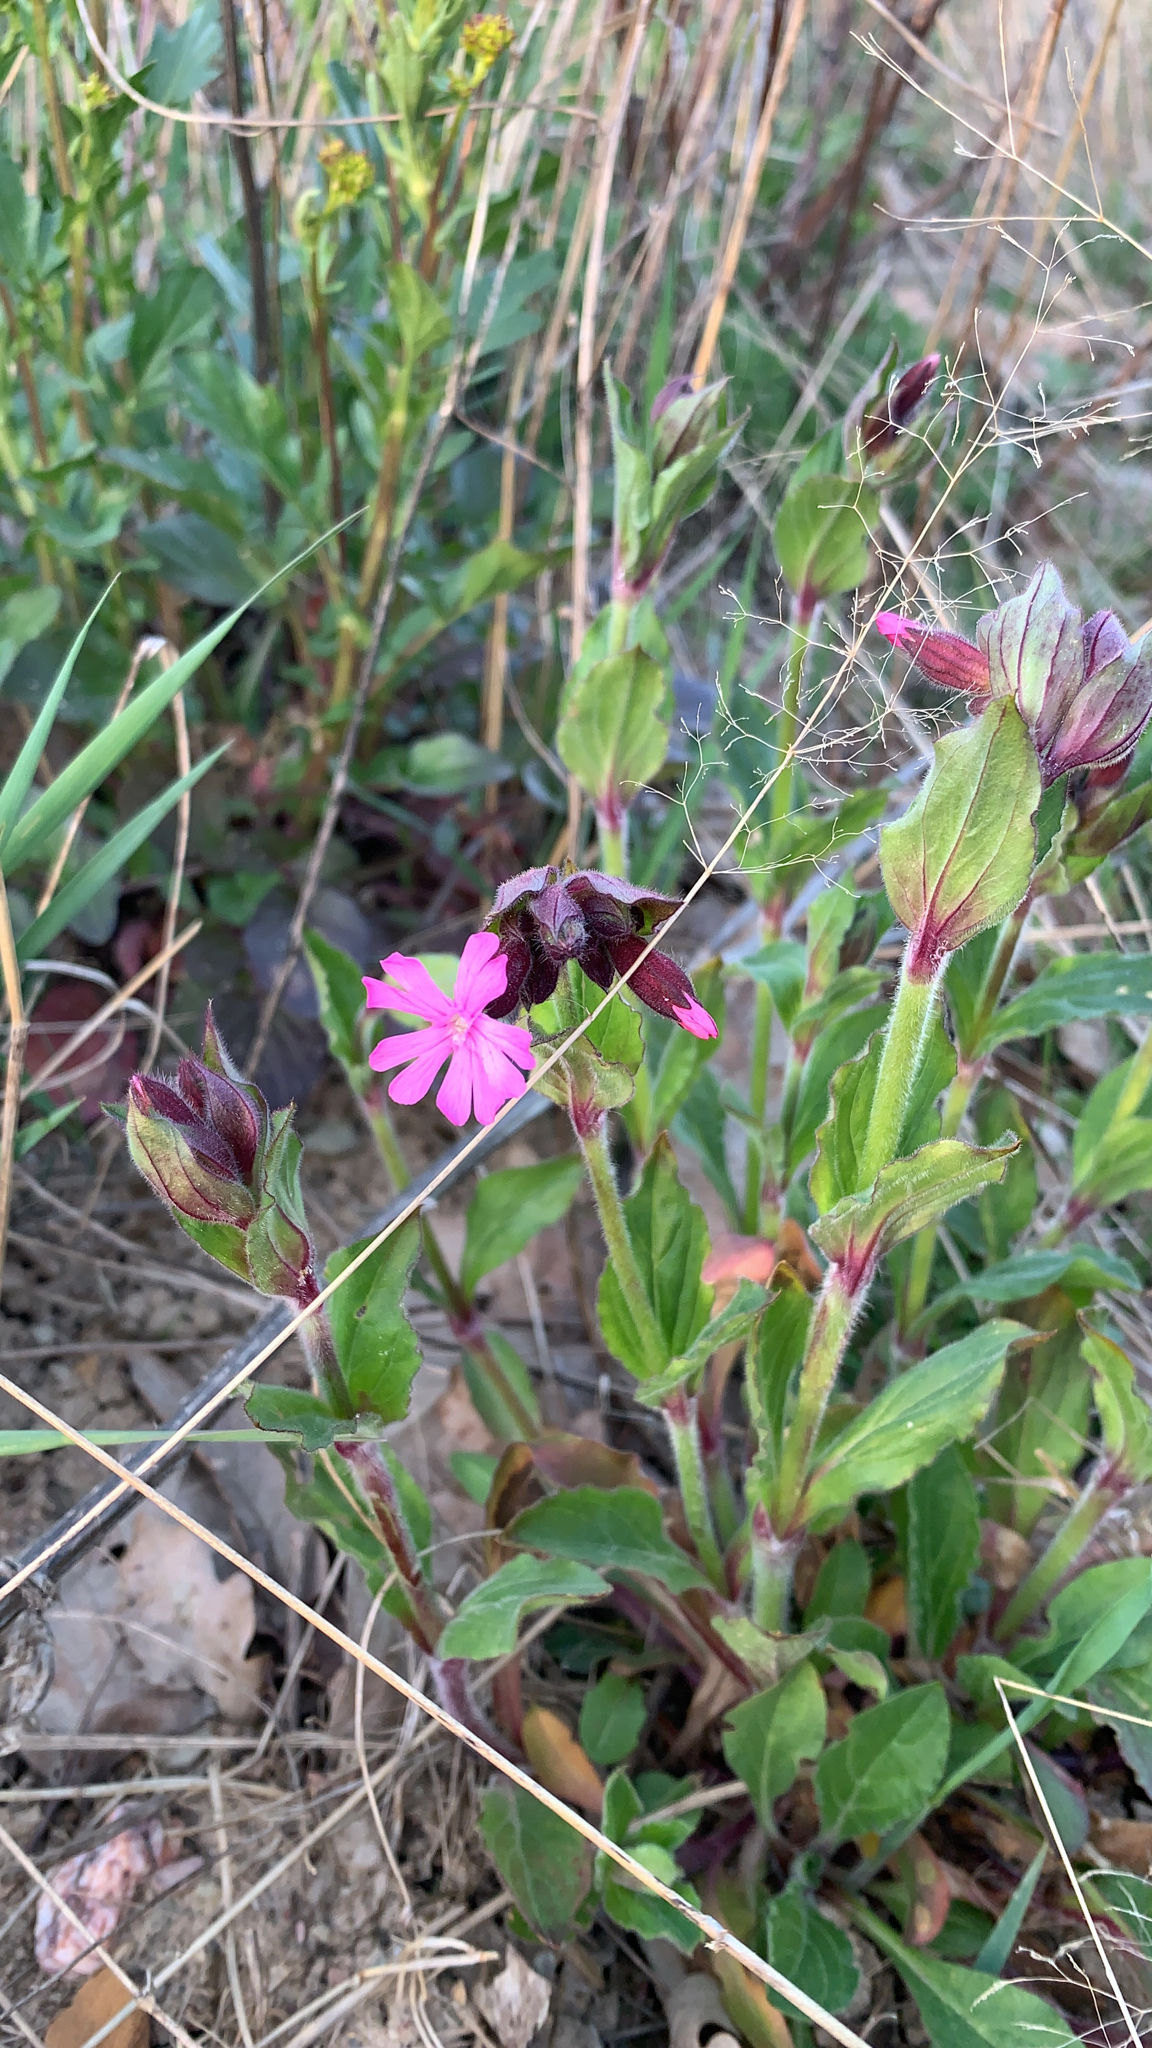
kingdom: Plantae
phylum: Tracheophyta
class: Magnoliopsida
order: Caryophyllales
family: Caryophyllaceae
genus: Silene
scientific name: Silene dioica
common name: Red campion
